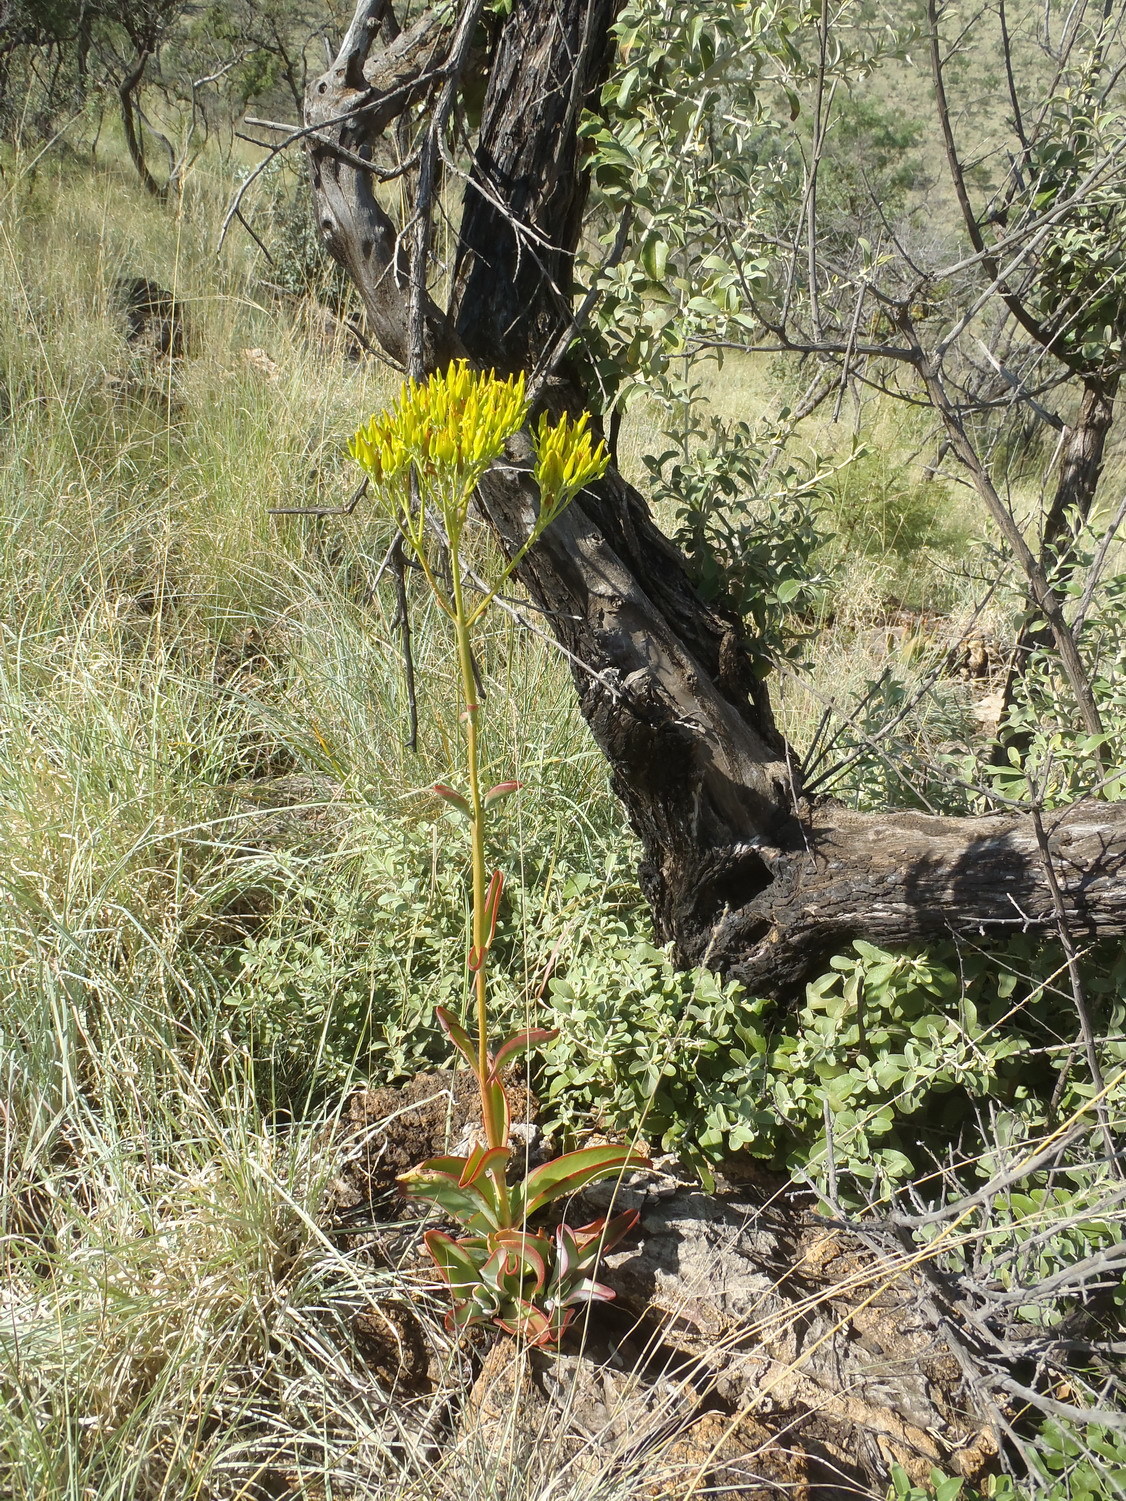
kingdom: Plantae
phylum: Tracheophyta
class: Magnoliopsida
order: Saxifragales
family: Crassulaceae
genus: Kalanchoe
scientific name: Kalanchoe paniculata
